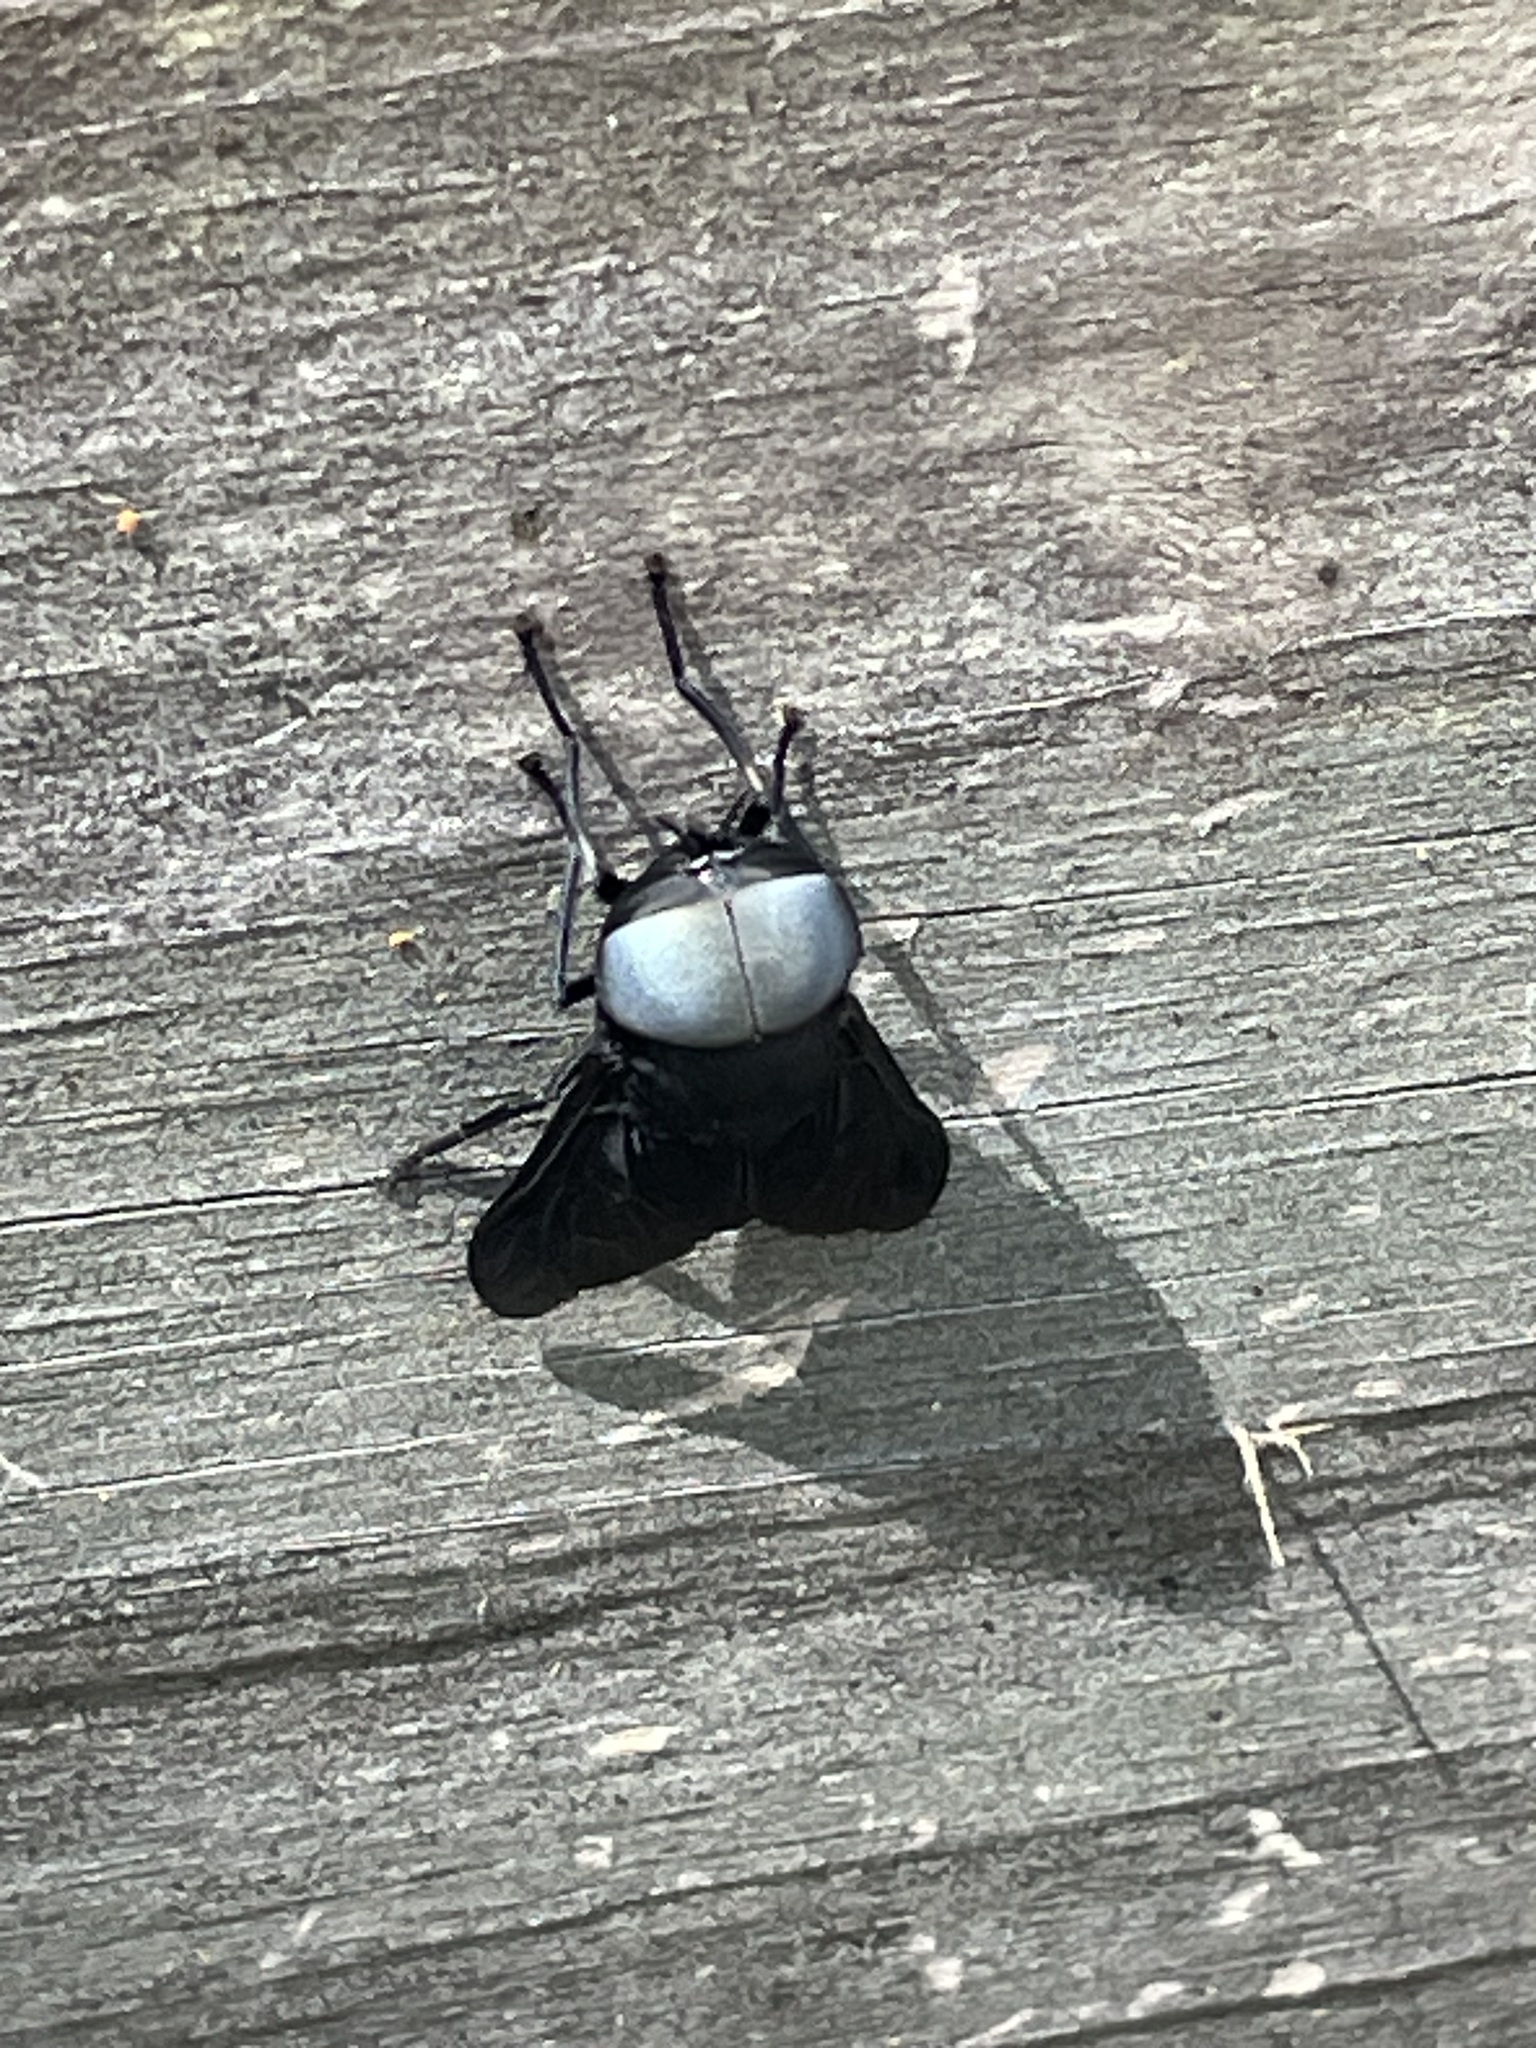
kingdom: Animalia
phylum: Arthropoda
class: Insecta
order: Diptera
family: Tabanidae
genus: Tabanus
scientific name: Tabanus atratus
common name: Black horse fly
